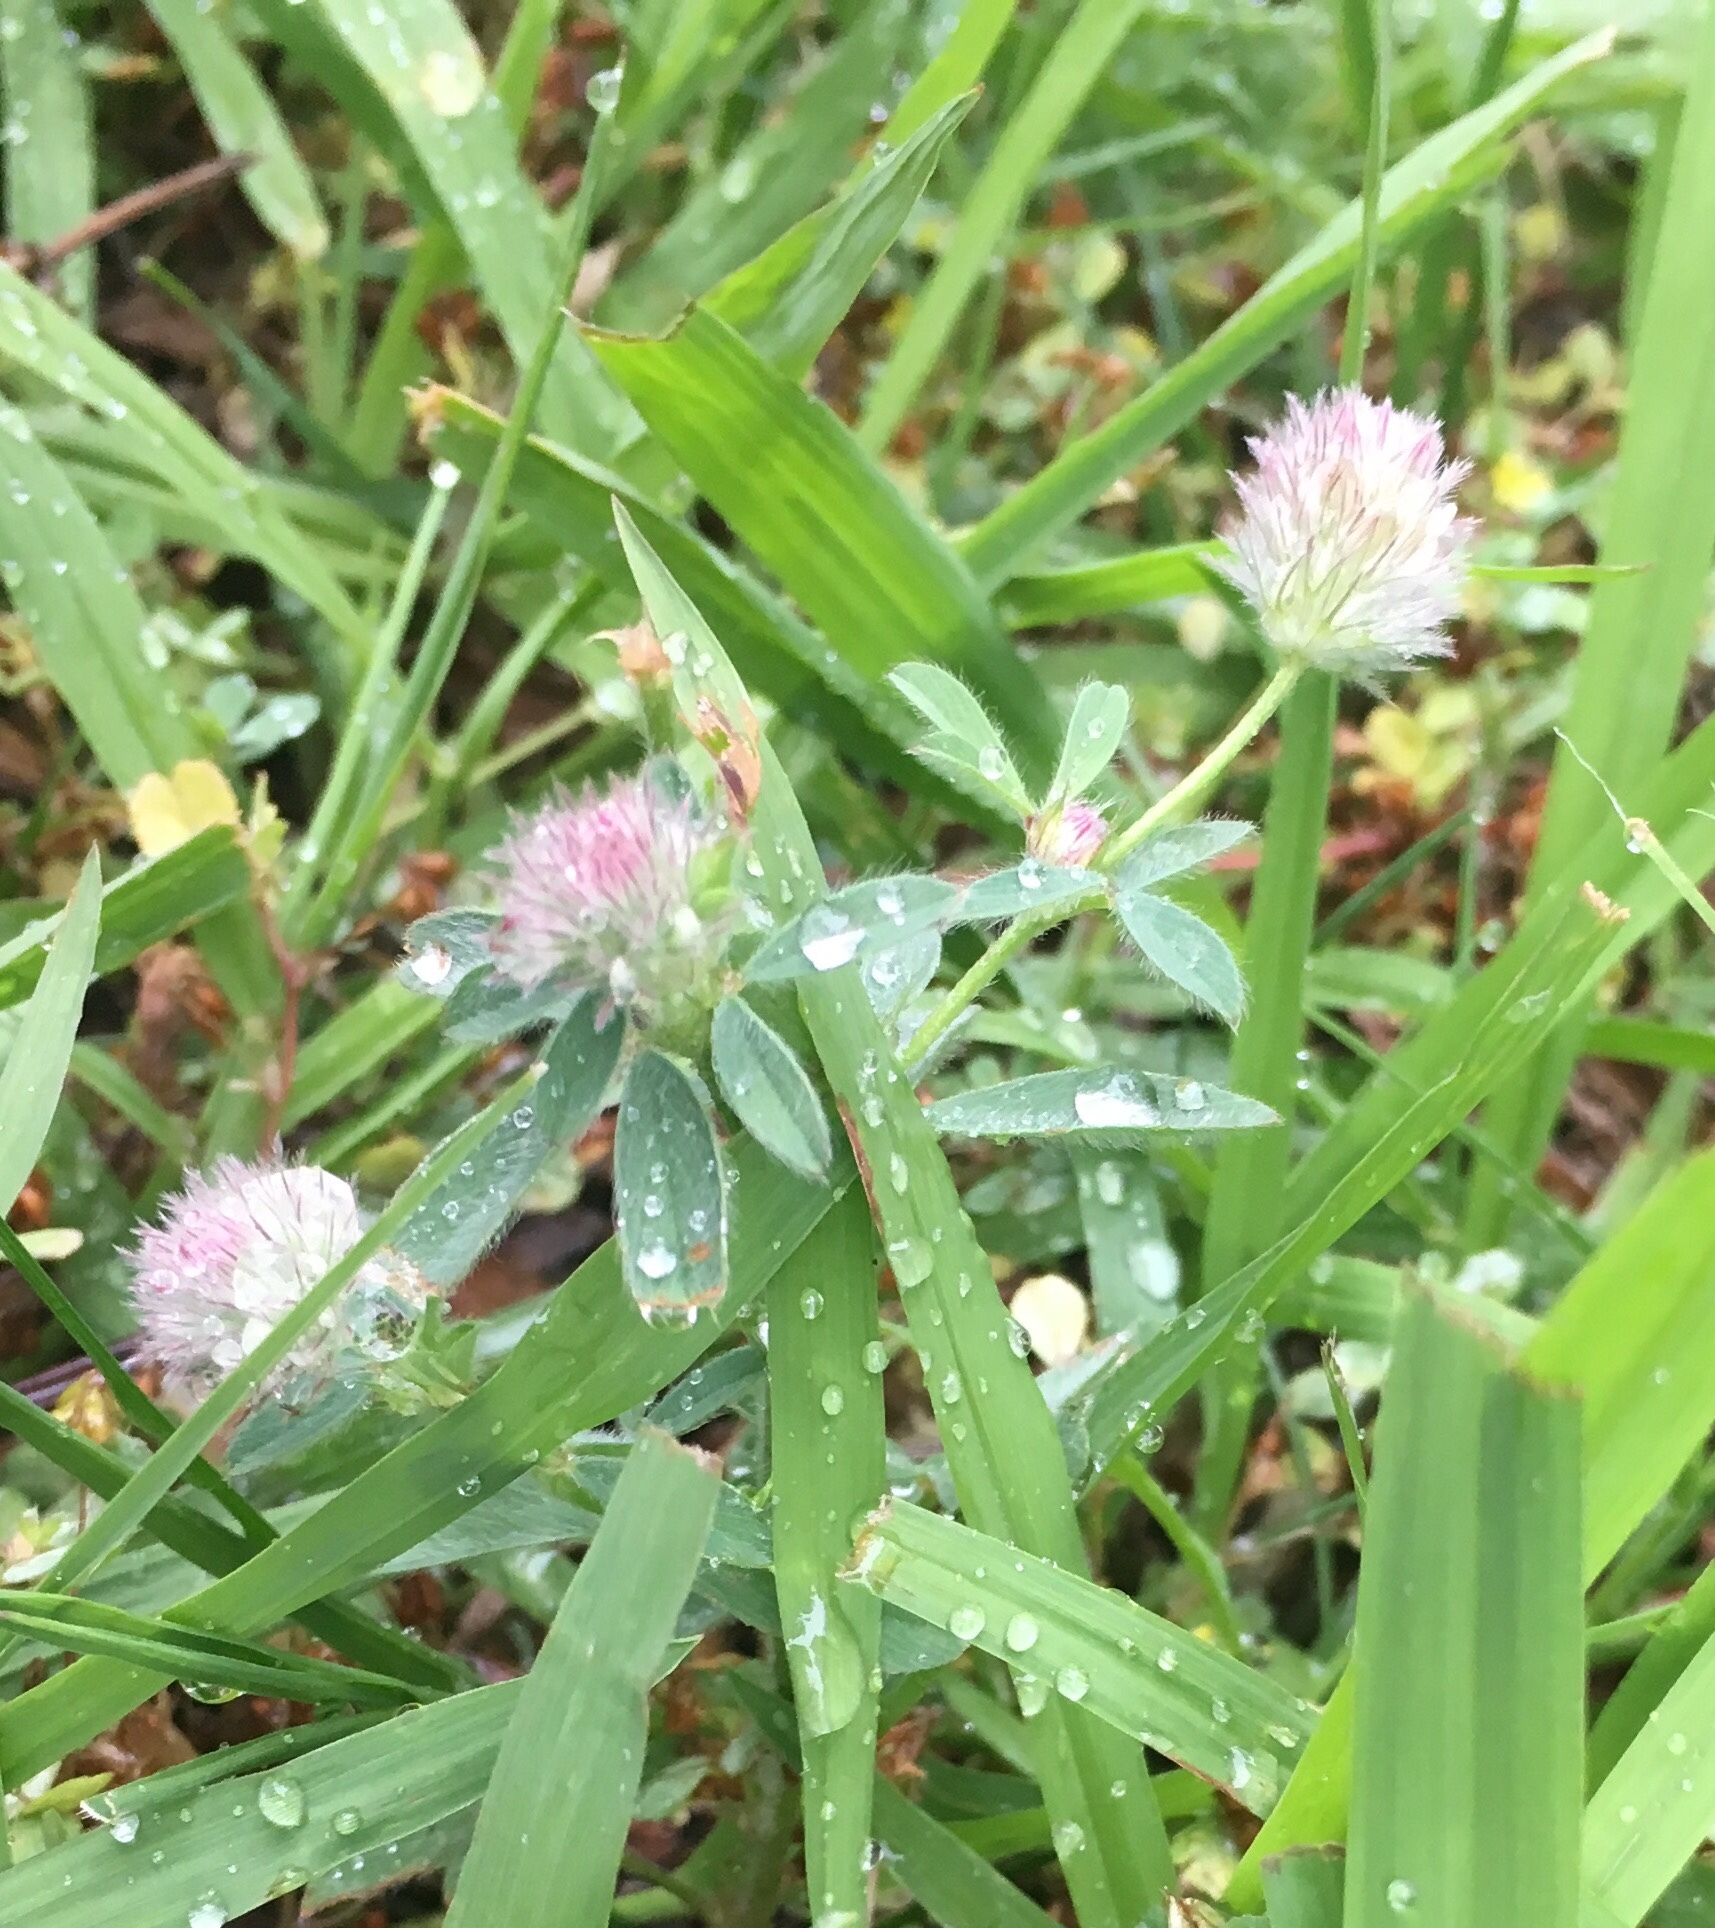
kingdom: Plantae
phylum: Tracheophyta
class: Magnoliopsida
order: Fabales
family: Fabaceae
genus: Trifolium
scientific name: Trifolium arvense
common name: Hare's-foot clover
